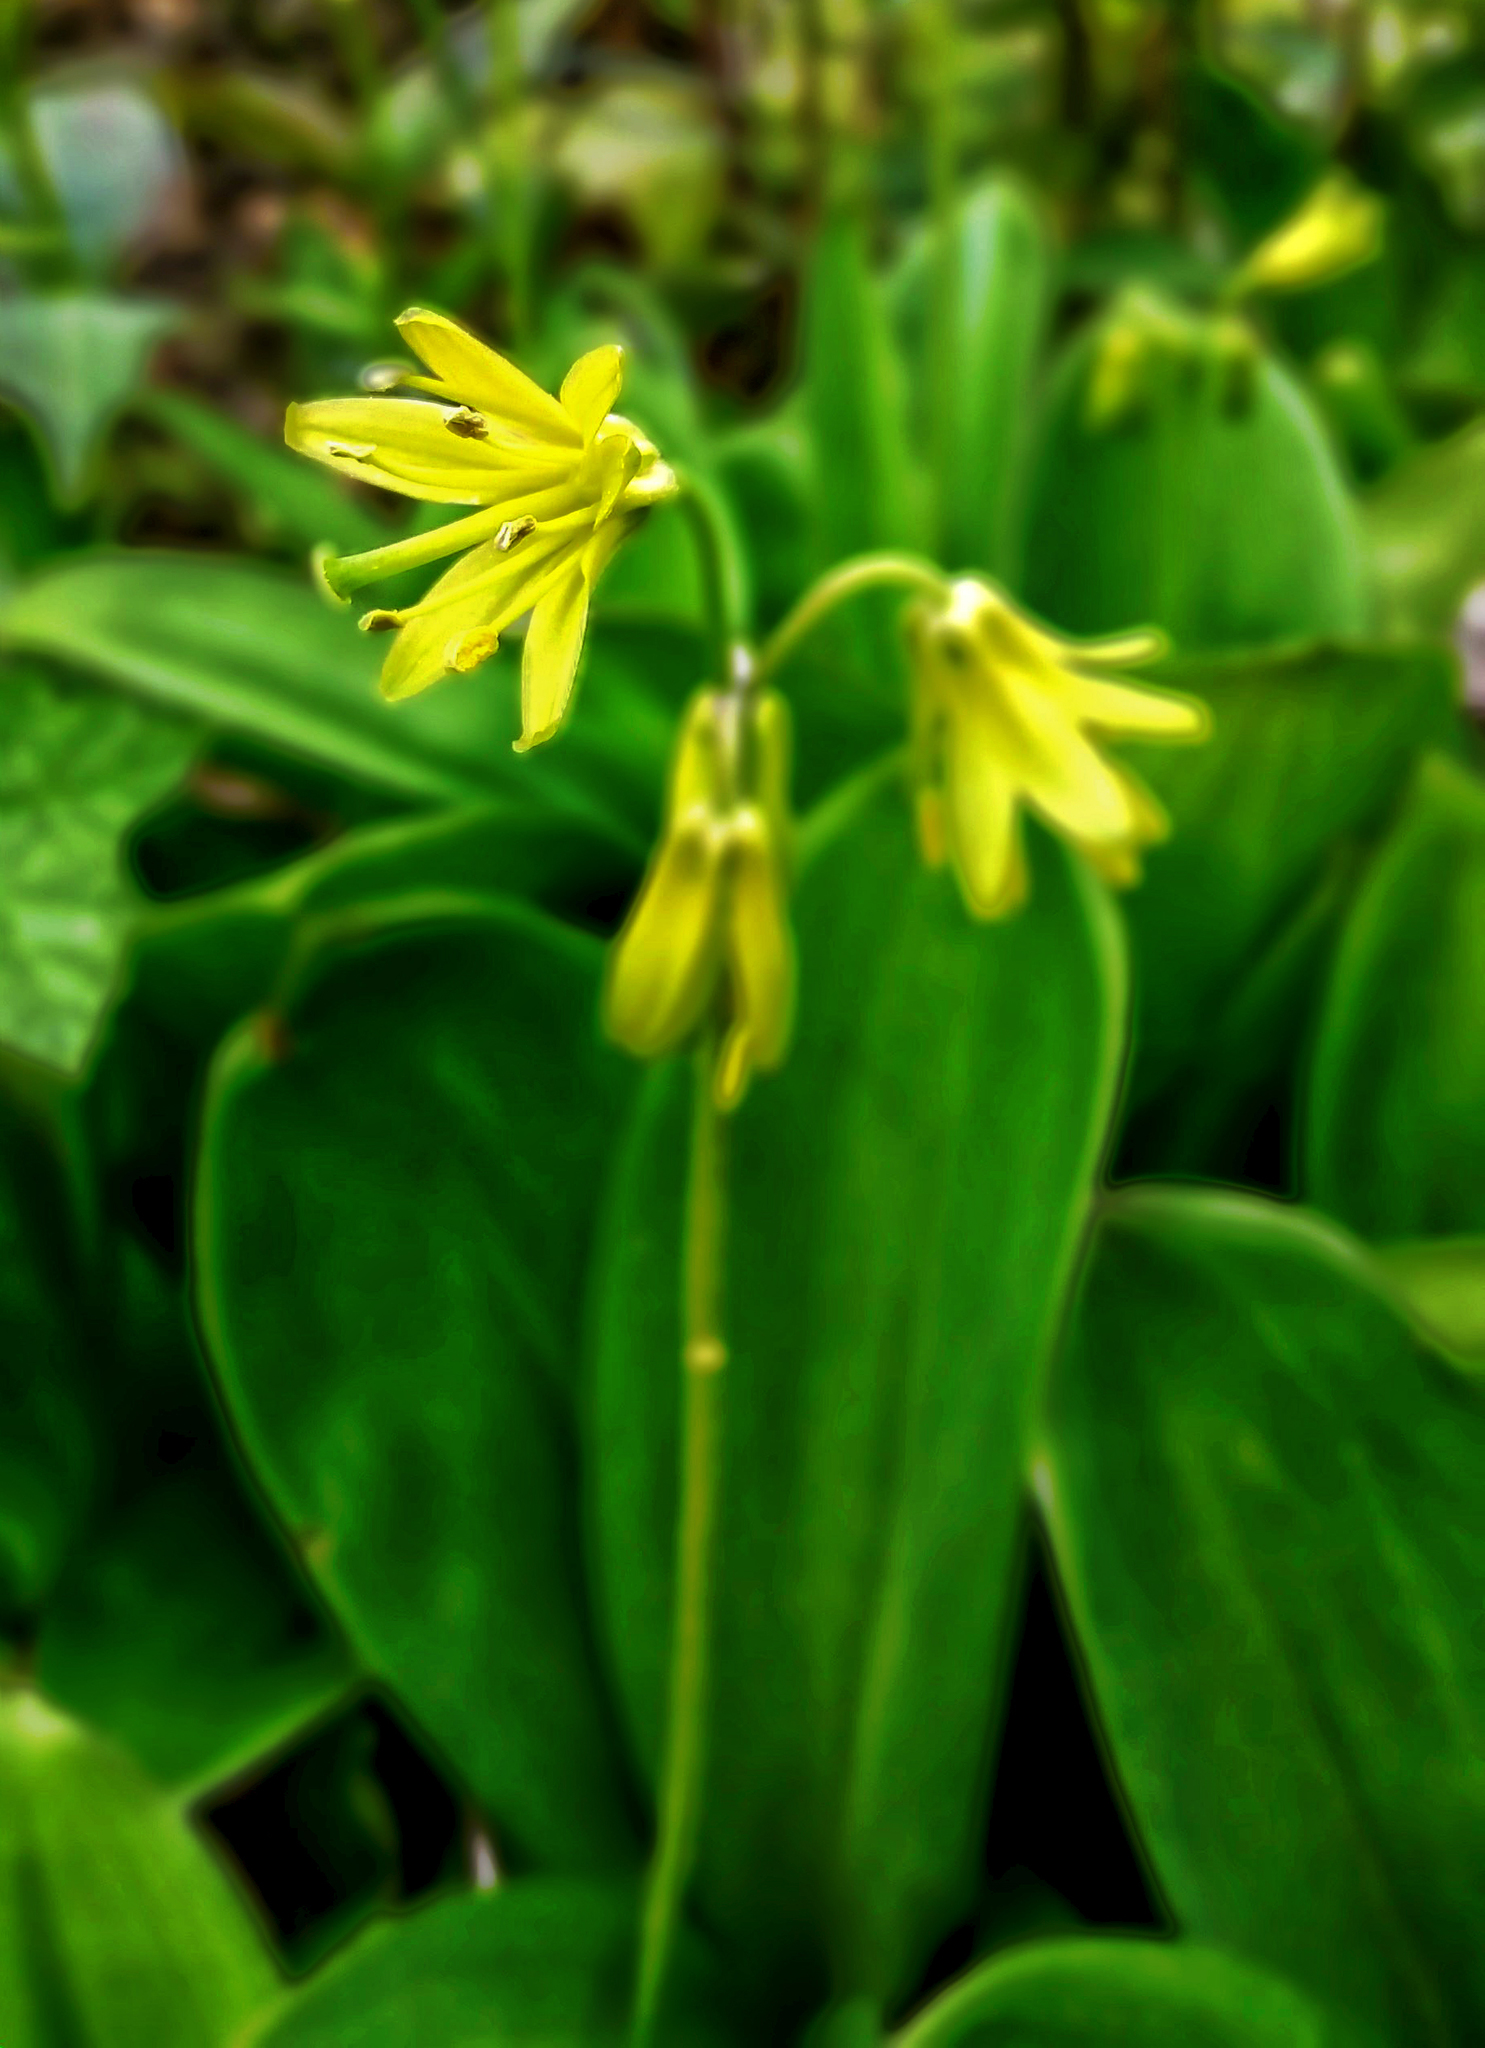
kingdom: Plantae
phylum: Tracheophyta
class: Liliopsida
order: Liliales
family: Liliaceae
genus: Clintonia
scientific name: Clintonia borealis
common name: Yellow clintonia
